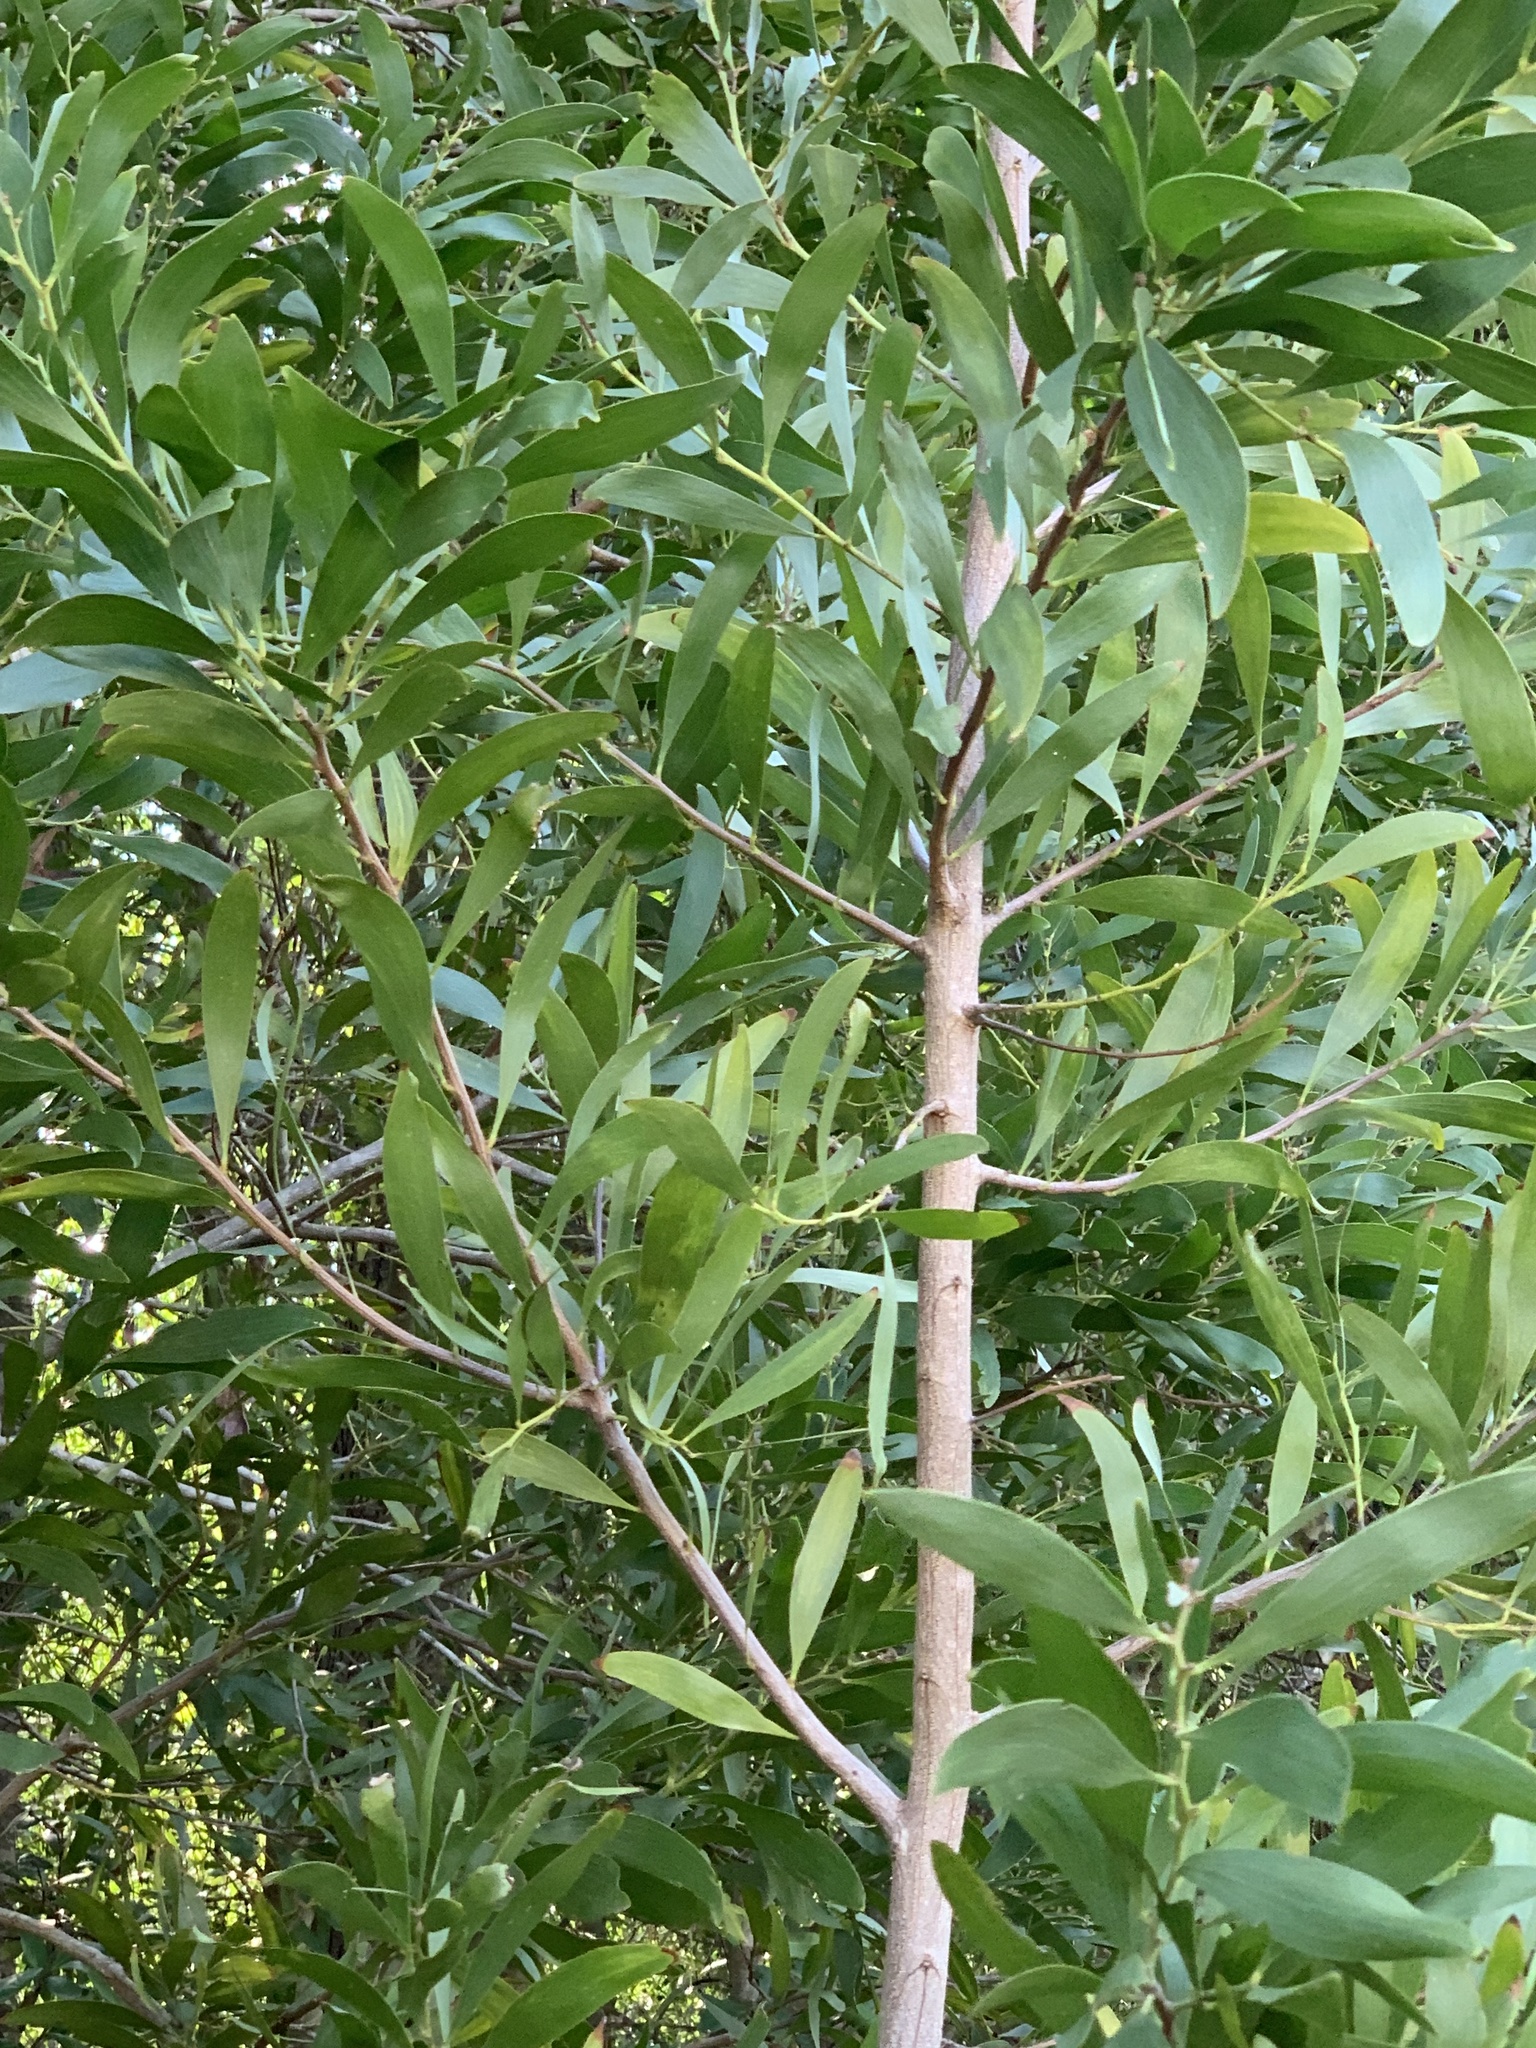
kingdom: Plantae
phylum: Tracheophyta
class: Magnoliopsida
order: Fabales
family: Fabaceae
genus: Acacia
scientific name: Acacia melanoxylon
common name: Blackwood
